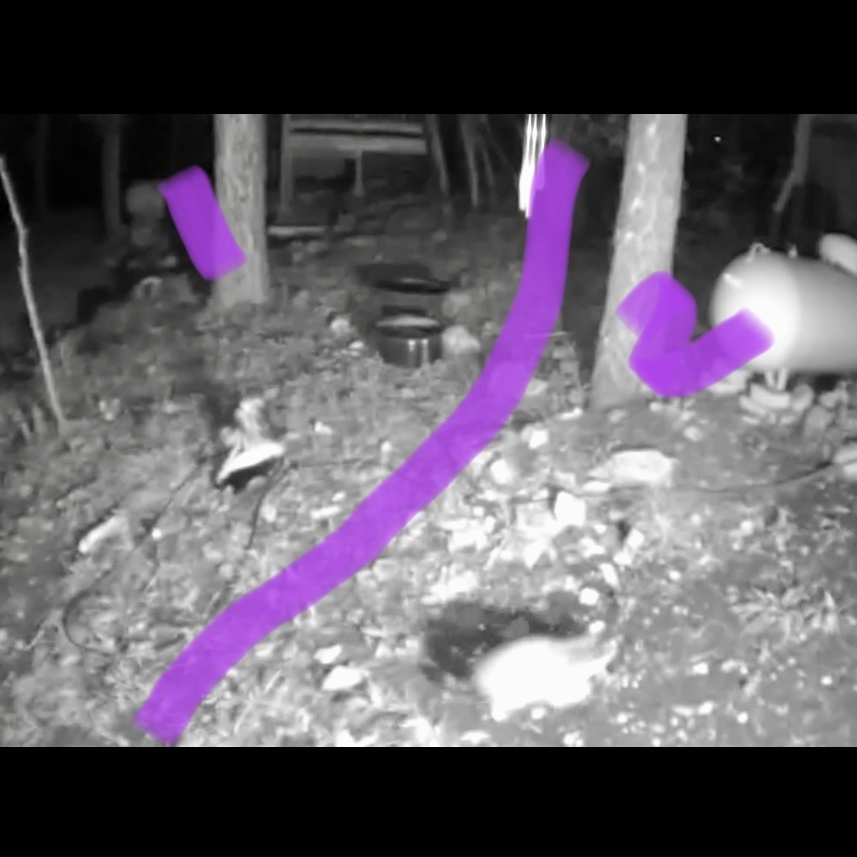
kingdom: Animalia
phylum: Chordata
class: Mammalia
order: Carnivora
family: Procyonidae
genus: Procyon
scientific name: Procyon lotor
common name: Raccoon
